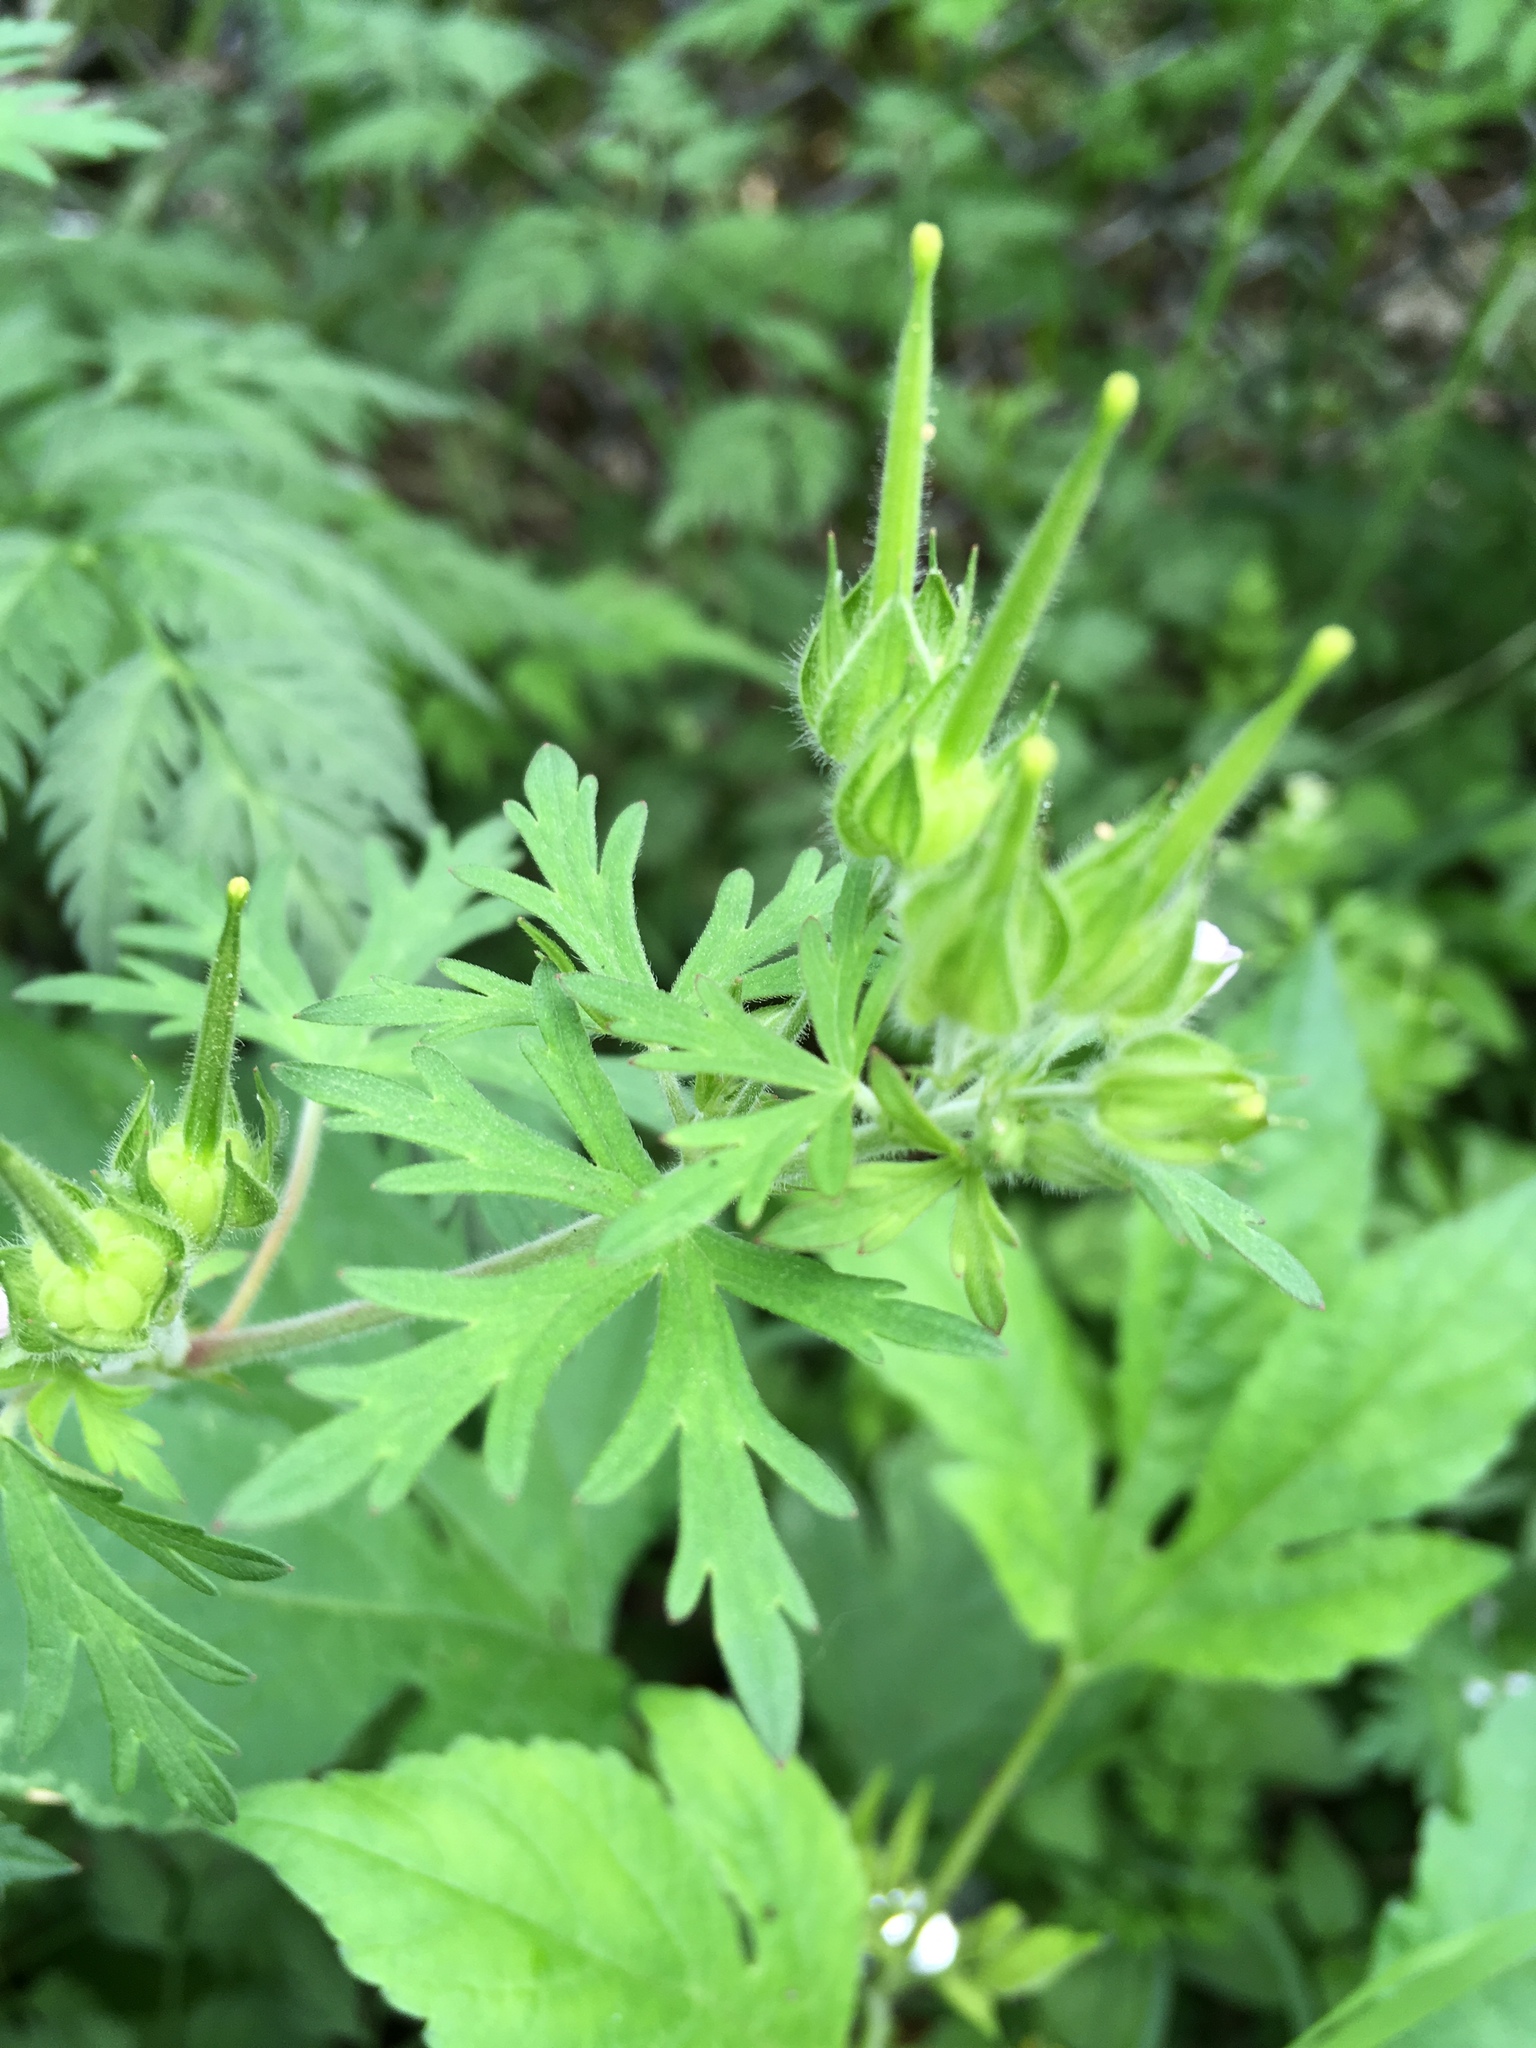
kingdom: Plantae
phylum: Tracheophyta
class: Magnoliopsida
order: Geraniales
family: Geraniaceae
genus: Geranium
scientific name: Geranium carolinianum
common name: Carolina crane's-bill
